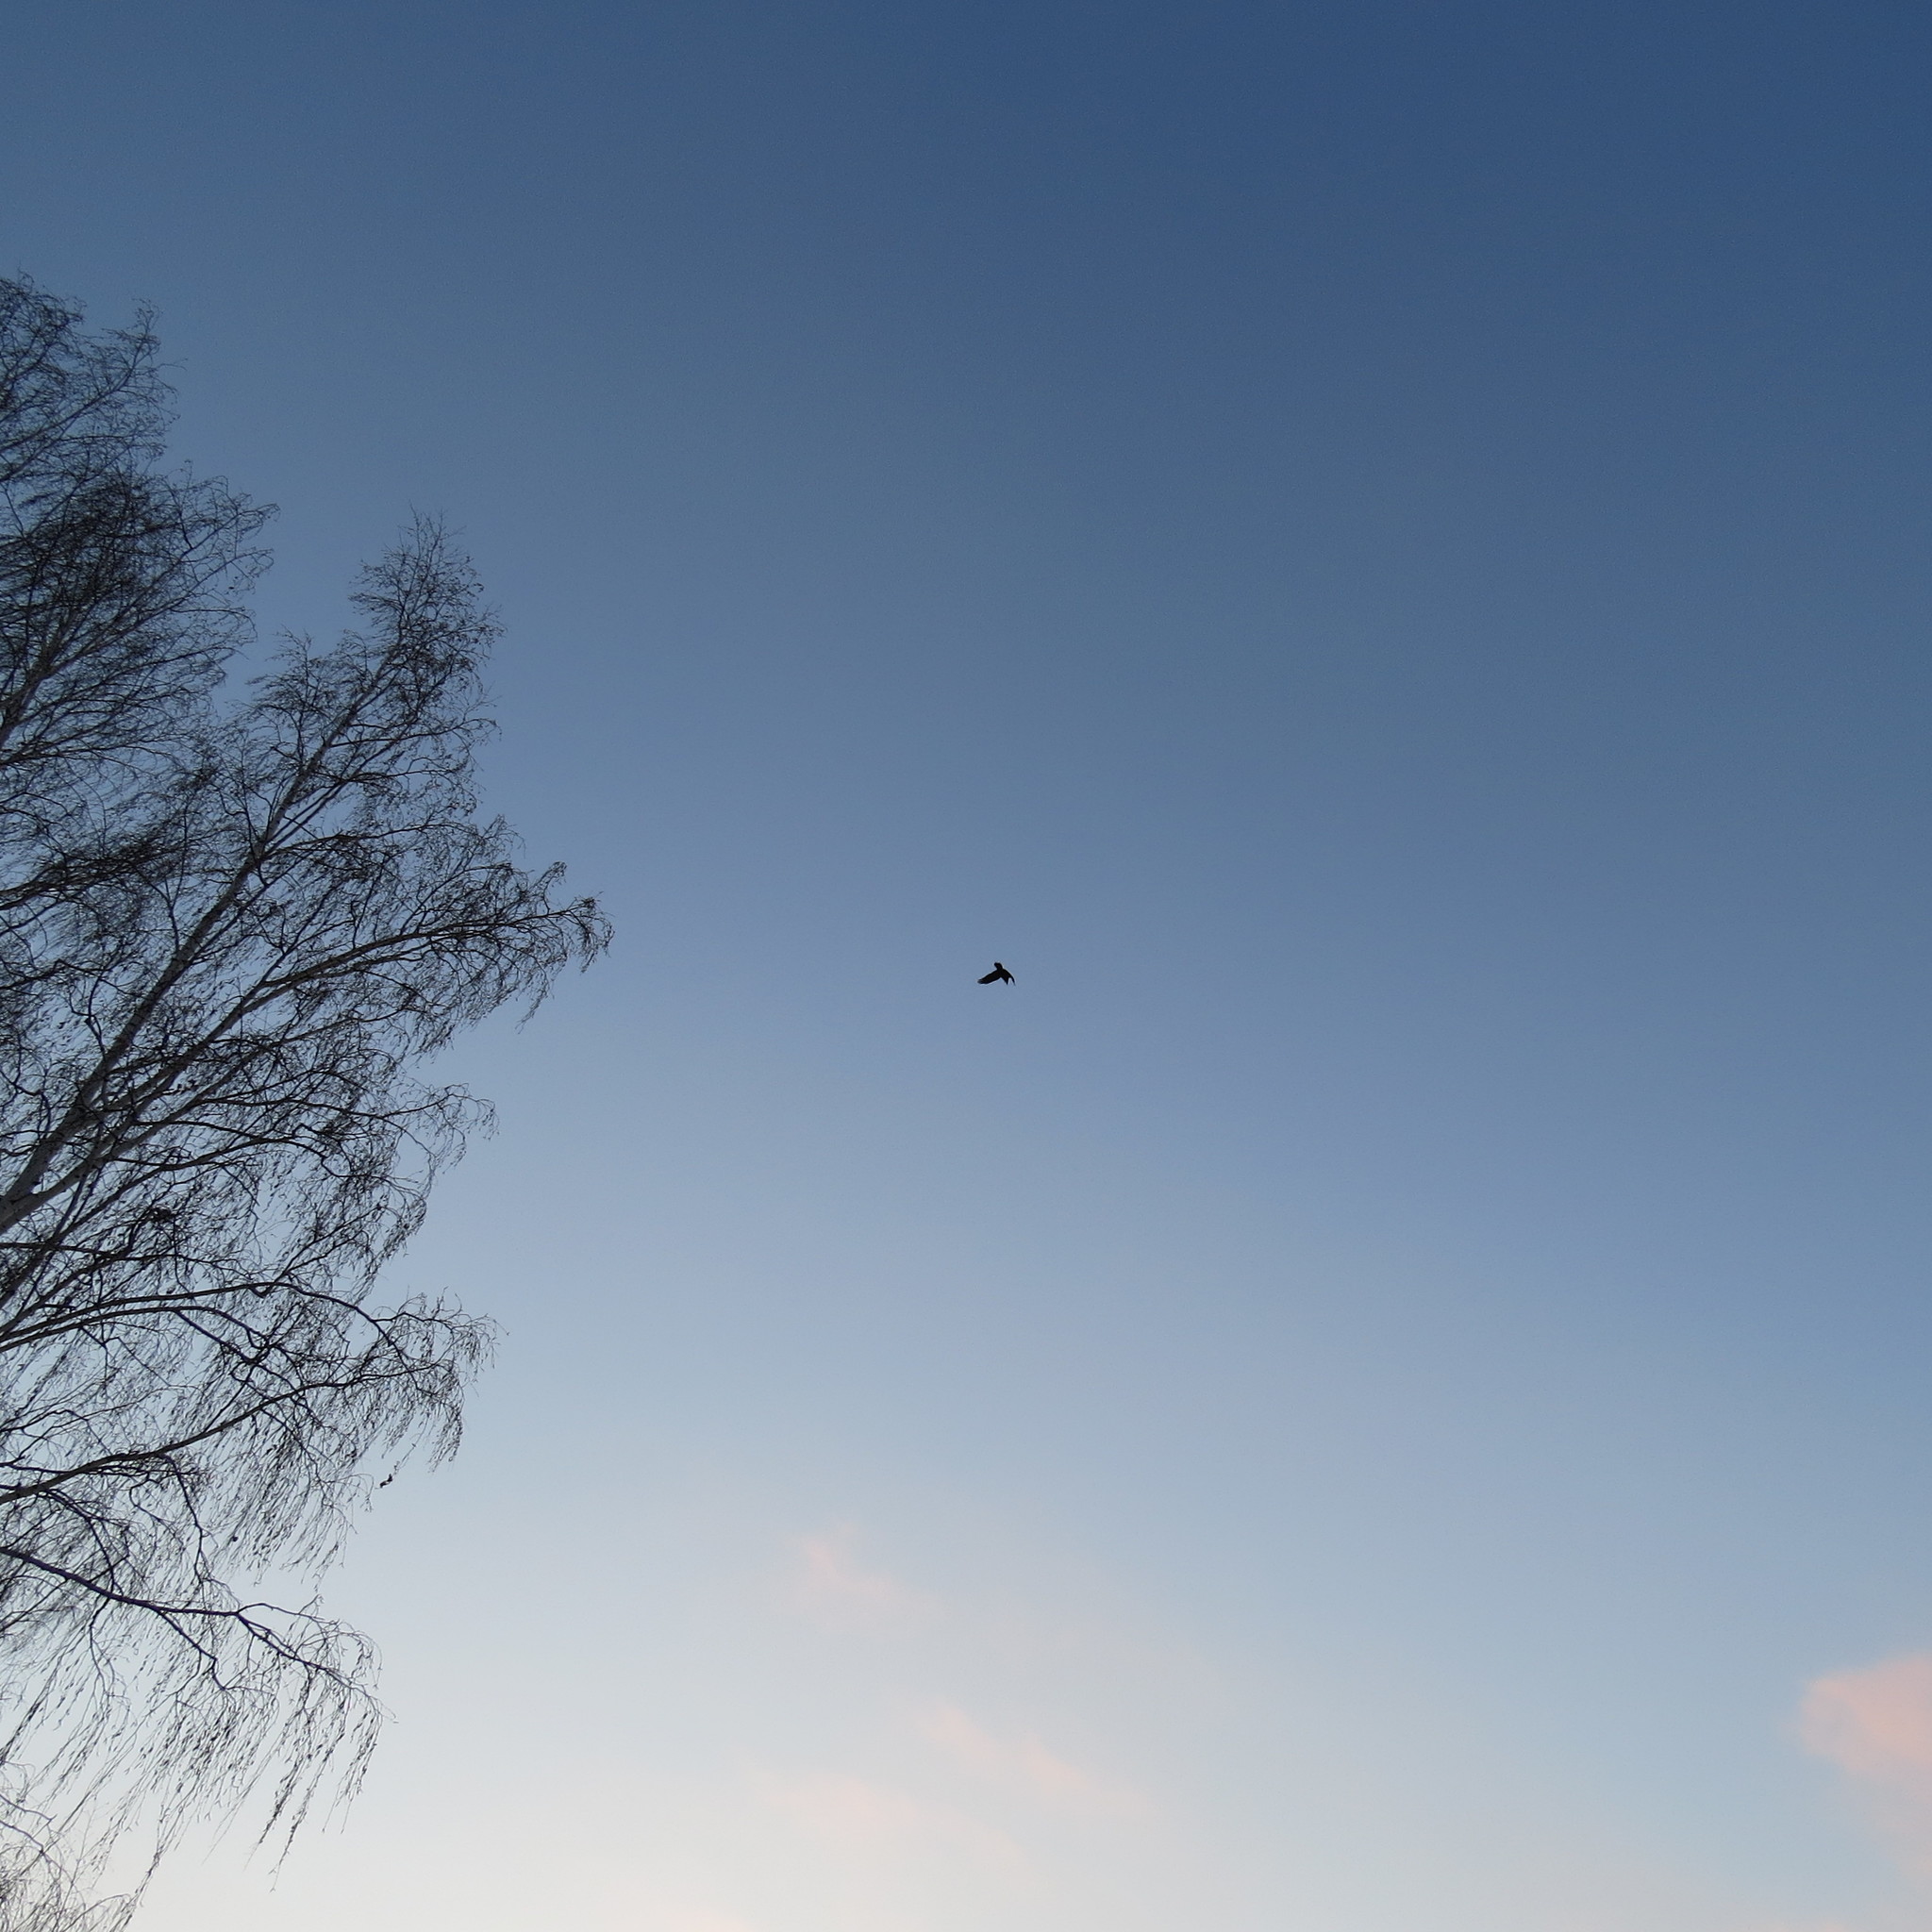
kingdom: Animalia
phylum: Chordata
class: Aves
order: Passeriformes
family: Corvidae
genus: Corvus
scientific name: Corvus corax
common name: Common raven
